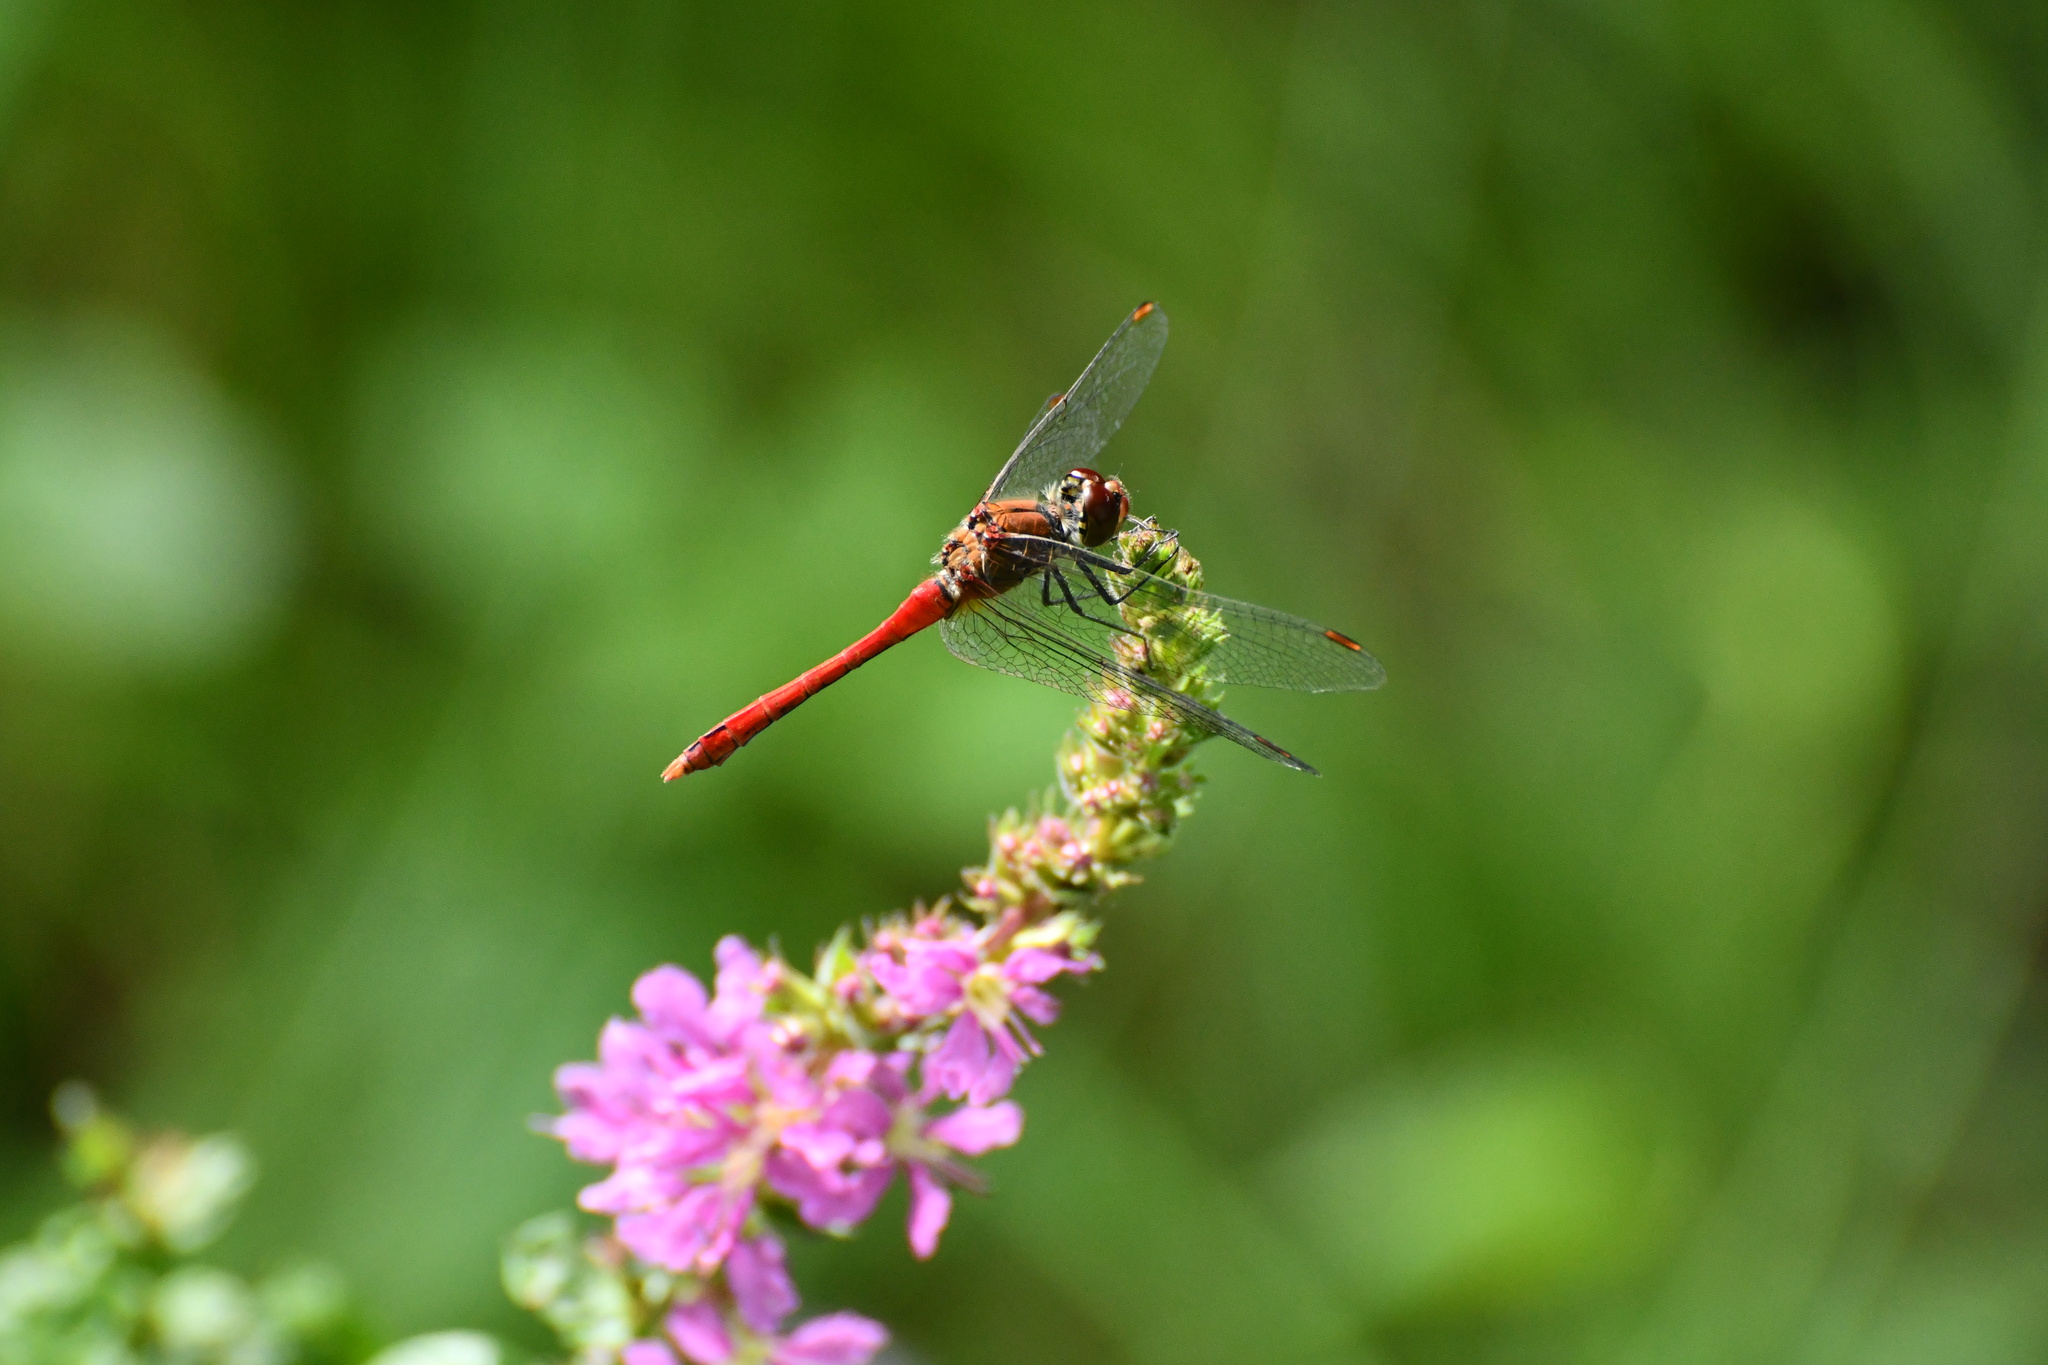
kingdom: Animalia
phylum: Arthropoda
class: Insecta
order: Odonata
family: Libellulidae
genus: Sympetrum
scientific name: Sympetrum sanguineum
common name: Ruddy darter
